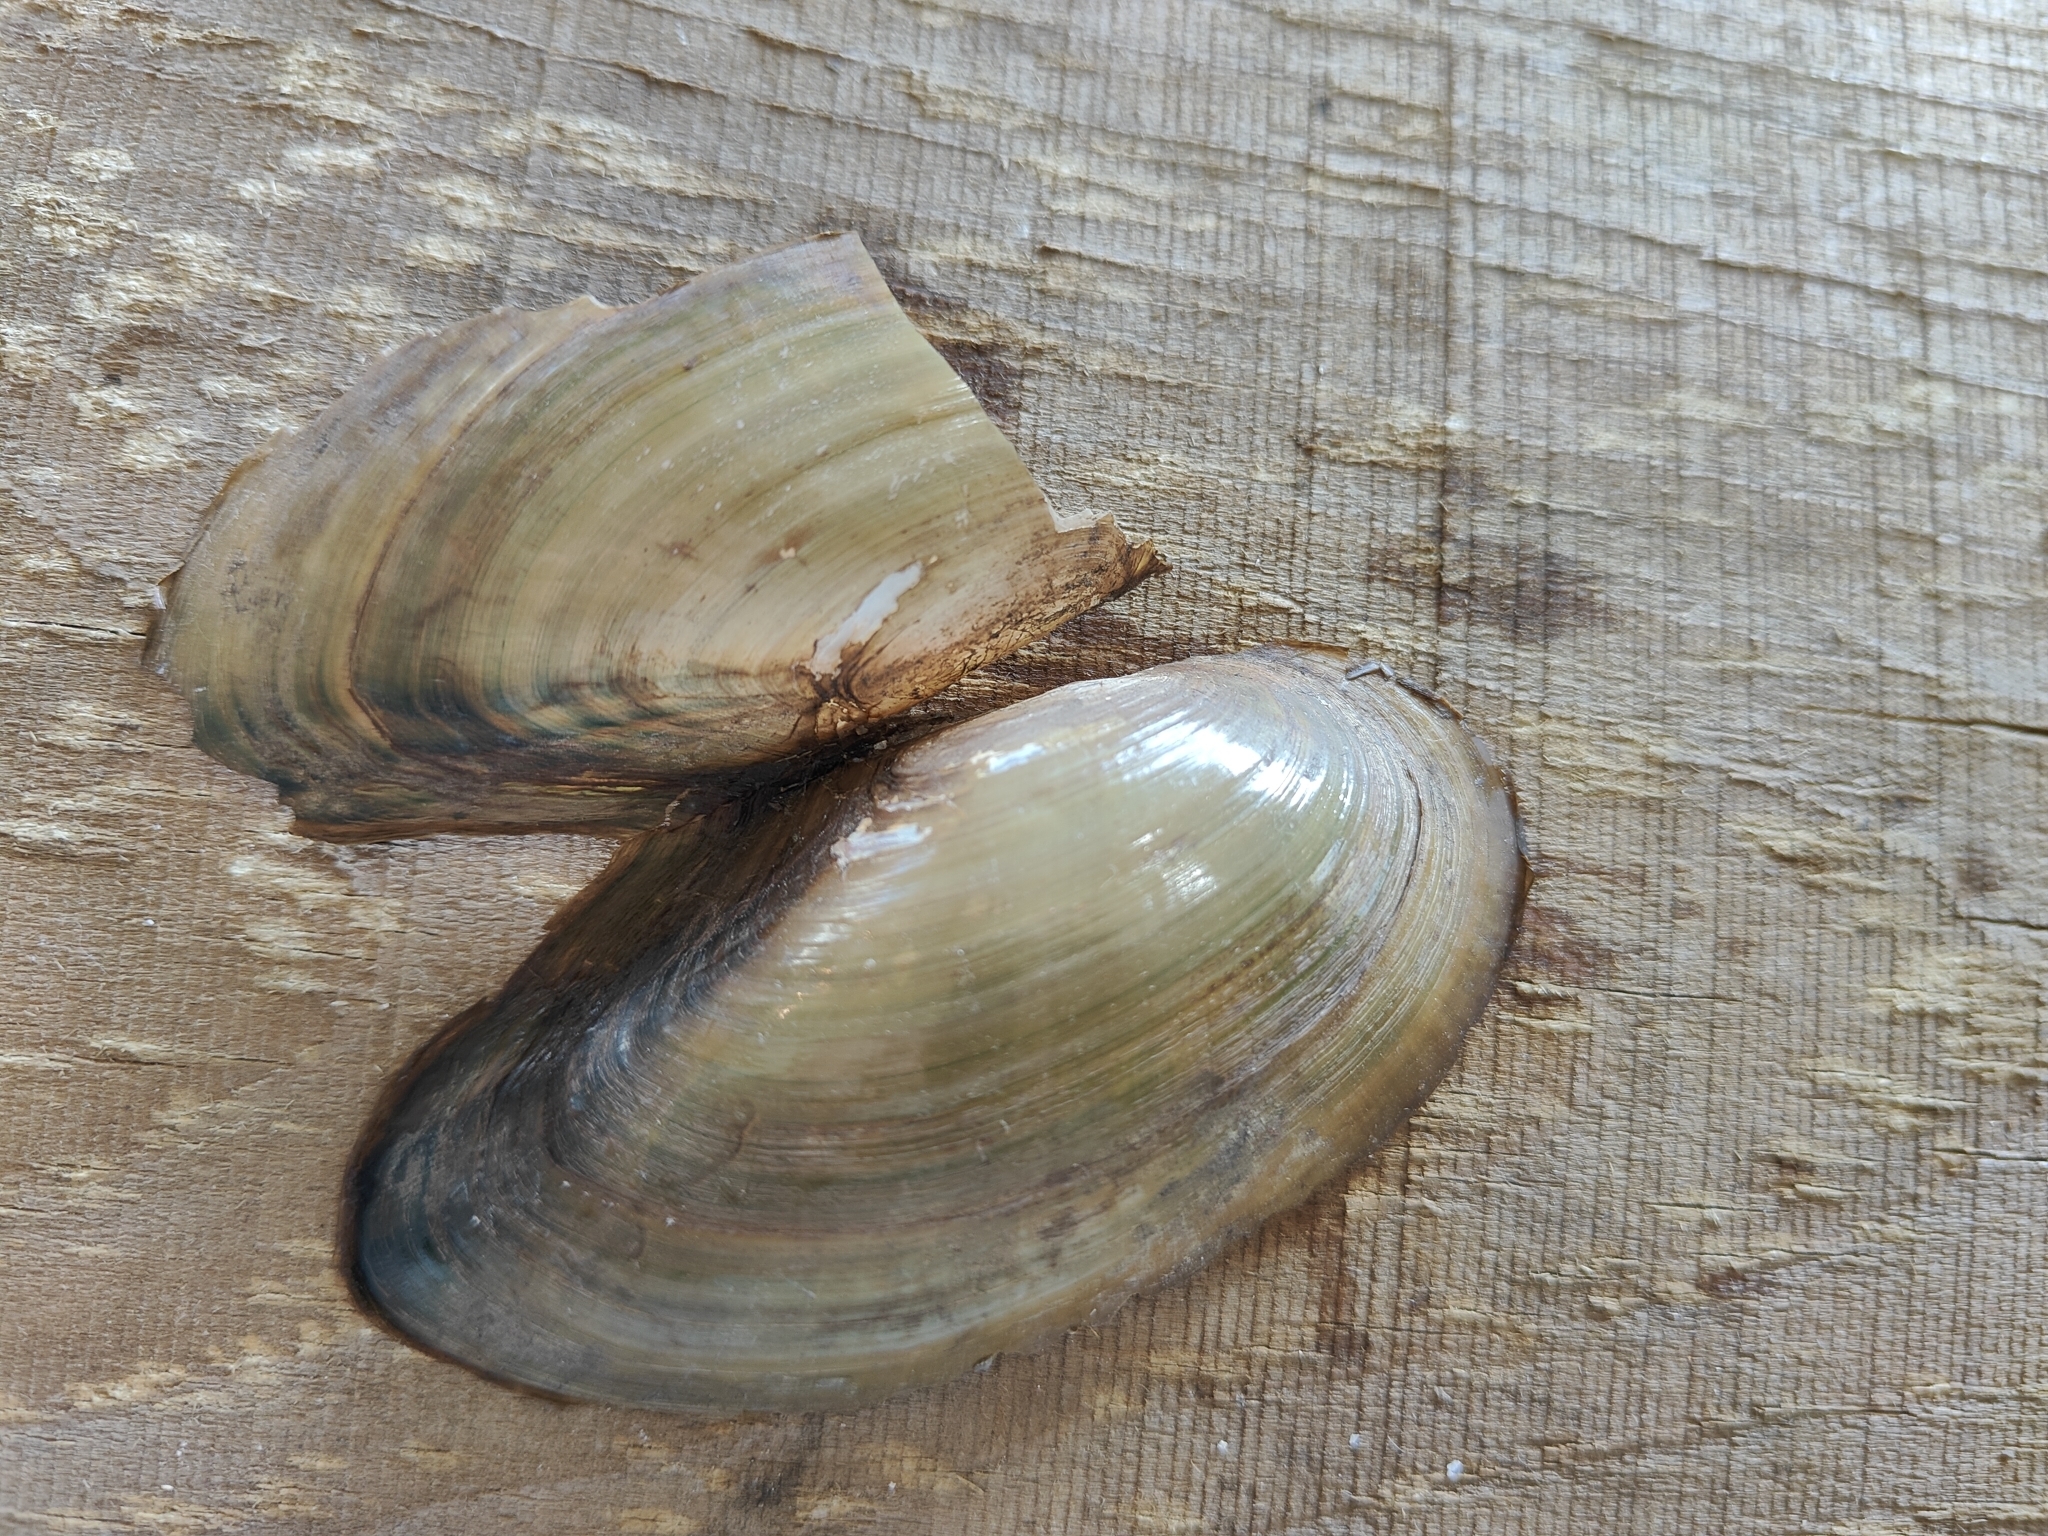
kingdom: Animalia
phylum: Mollusca
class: Bivalvia
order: Unionida
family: Unionidae
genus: Utterbackia
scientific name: Utterbackia imbecillis
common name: Paper pondshell
